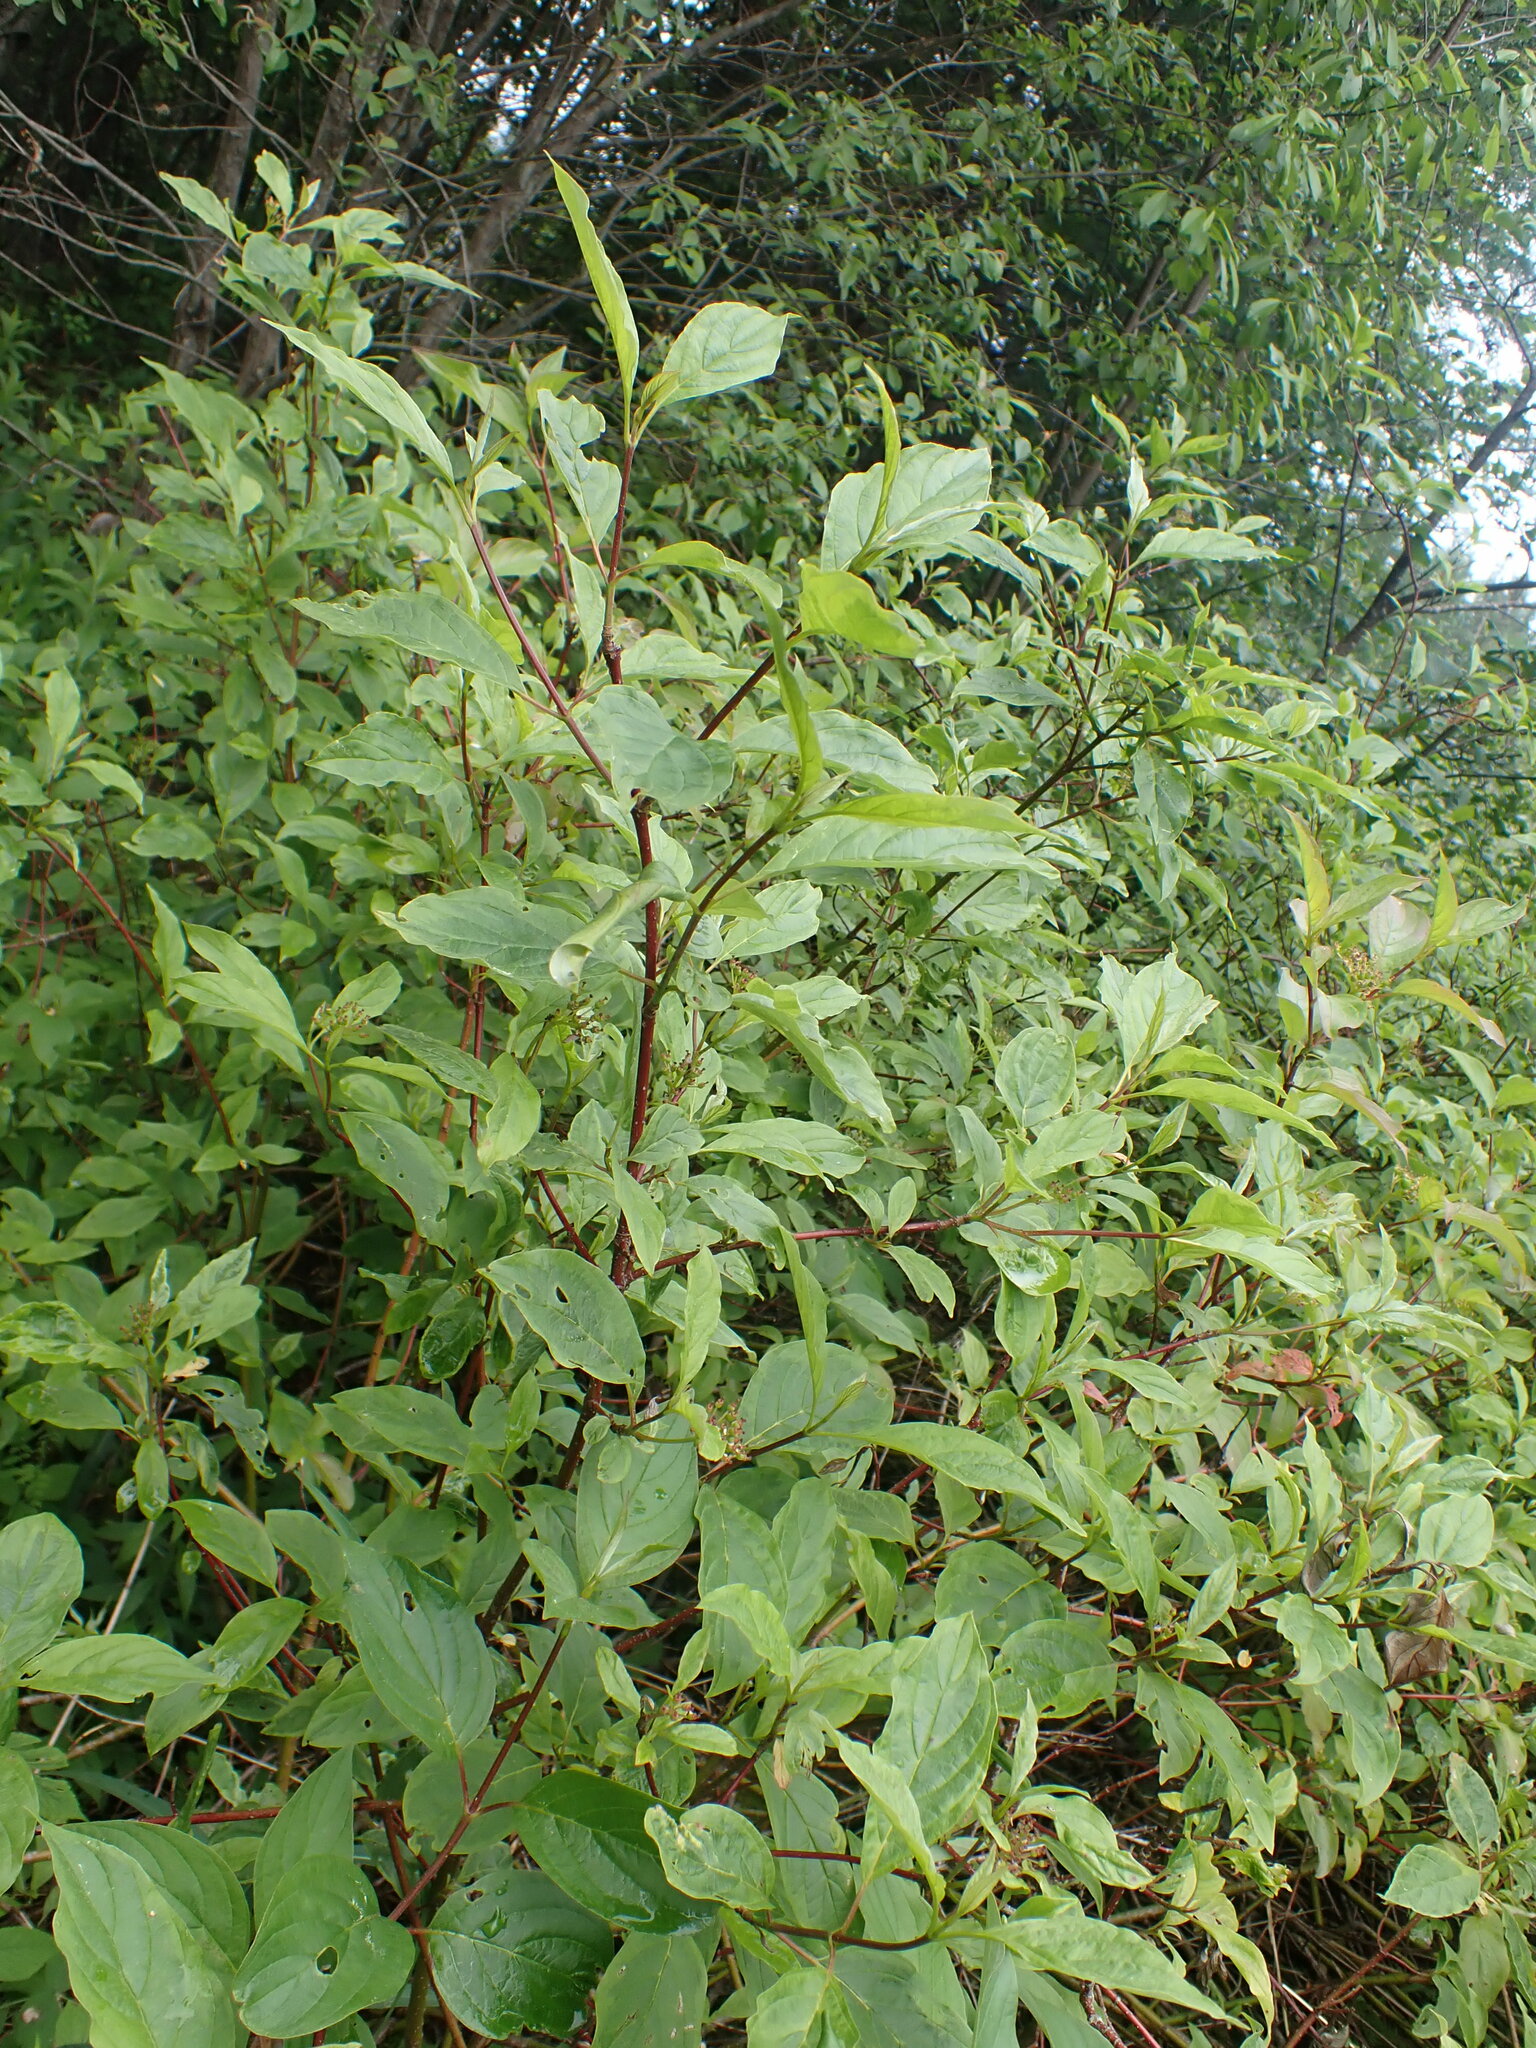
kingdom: Plantae
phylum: Tracheophyta
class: Magnoliopsida
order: Cornales
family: Cornaceae
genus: Cornus
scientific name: Cornus sericea
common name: Red-osier dogwood
